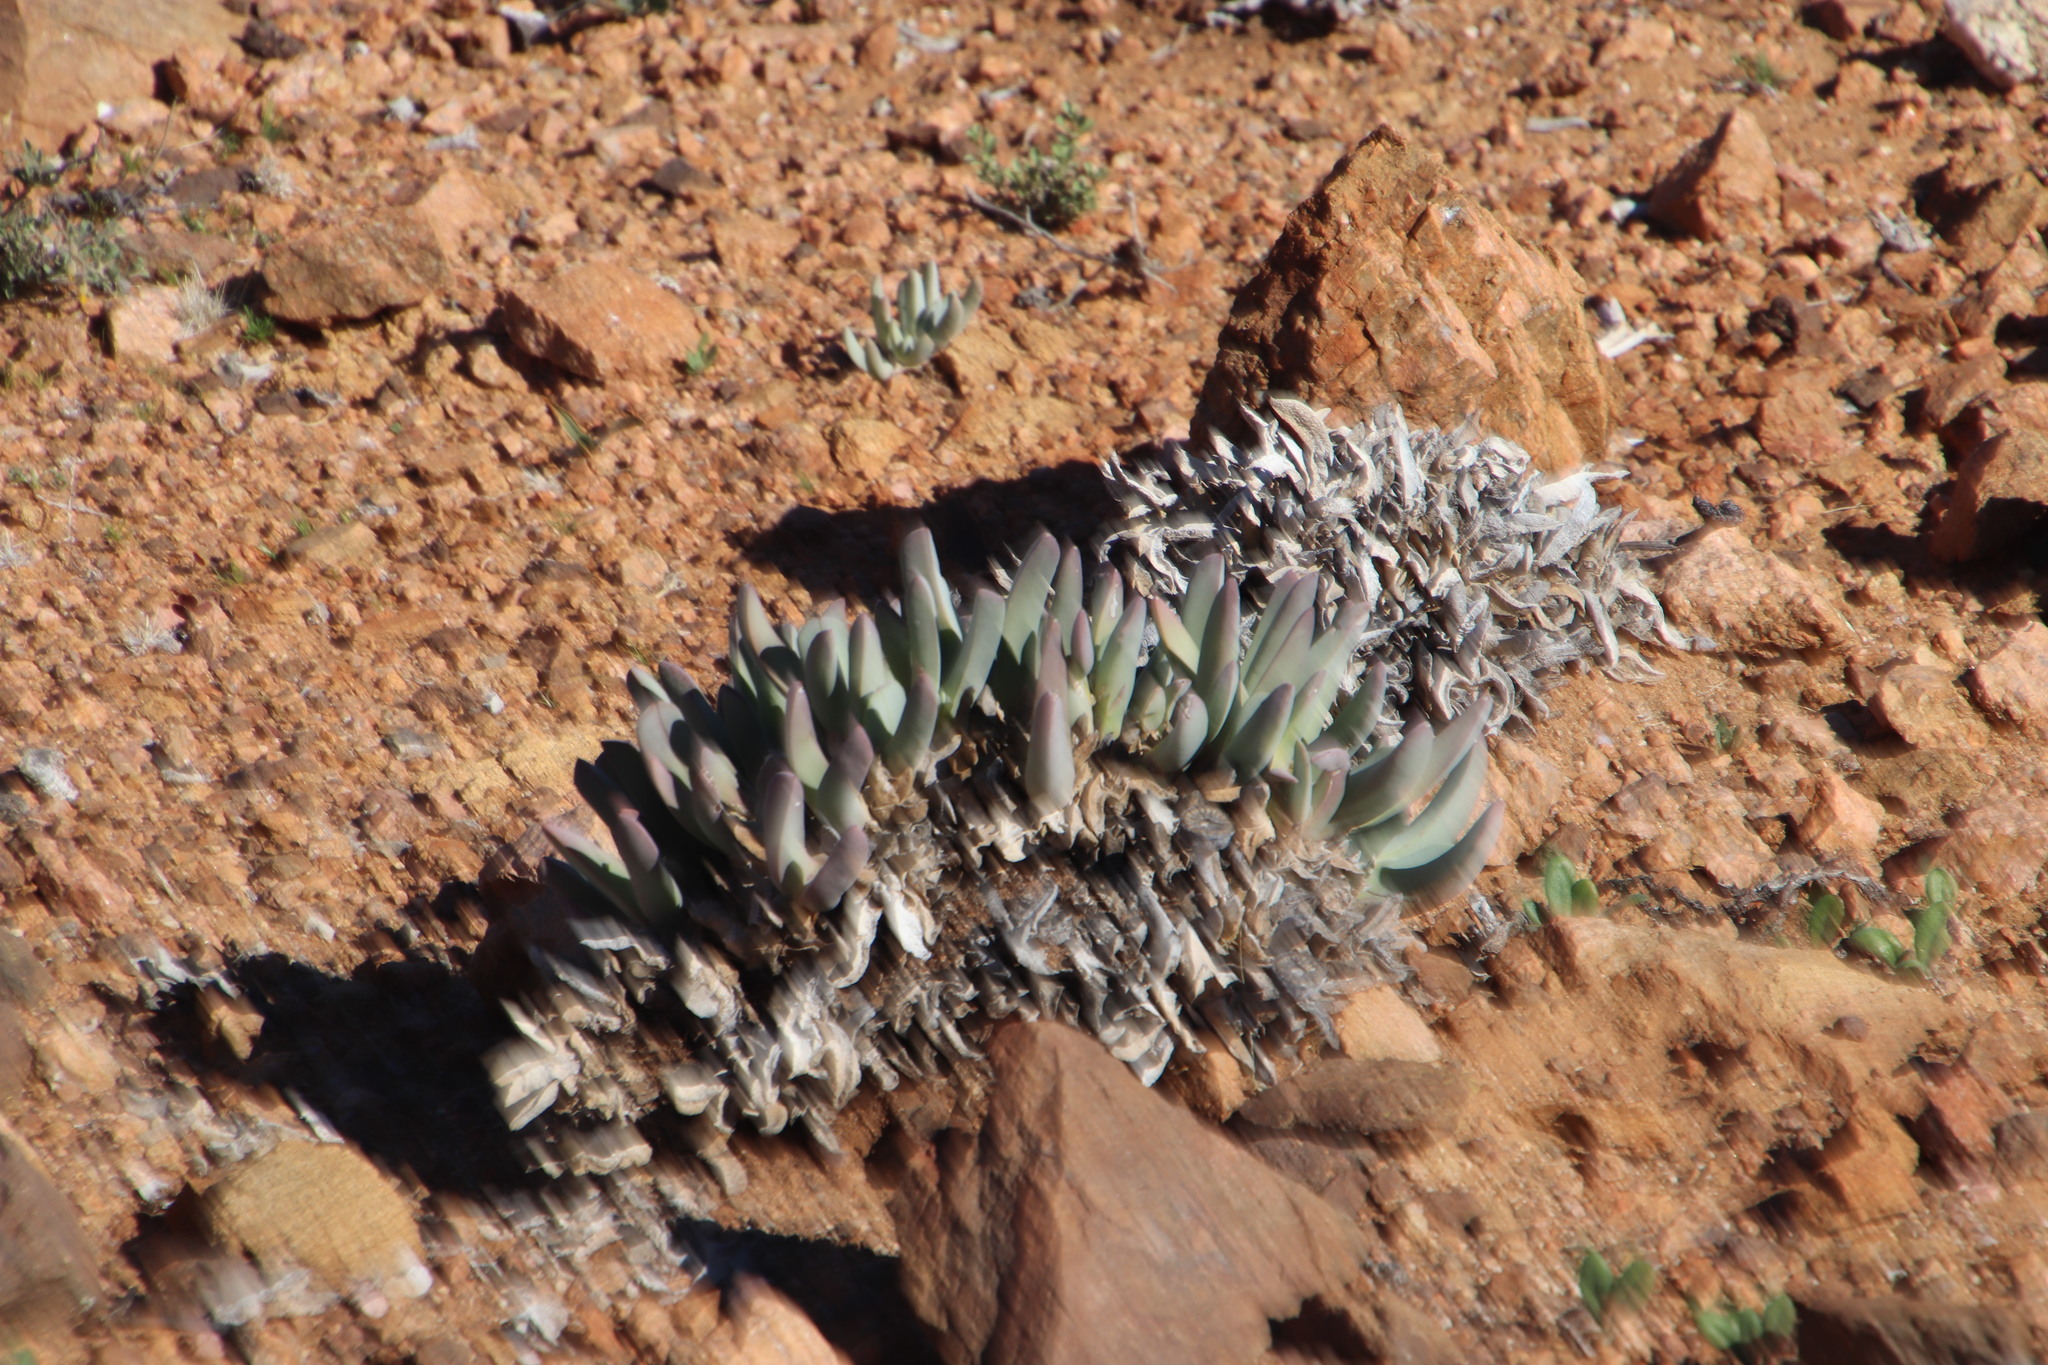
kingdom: Plantae
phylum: Tracheophyta
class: Magnoliopsida
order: Caryophyllales
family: Aizoaceae
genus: Cheiridopsis
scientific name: Cheiridopsis denticulata
